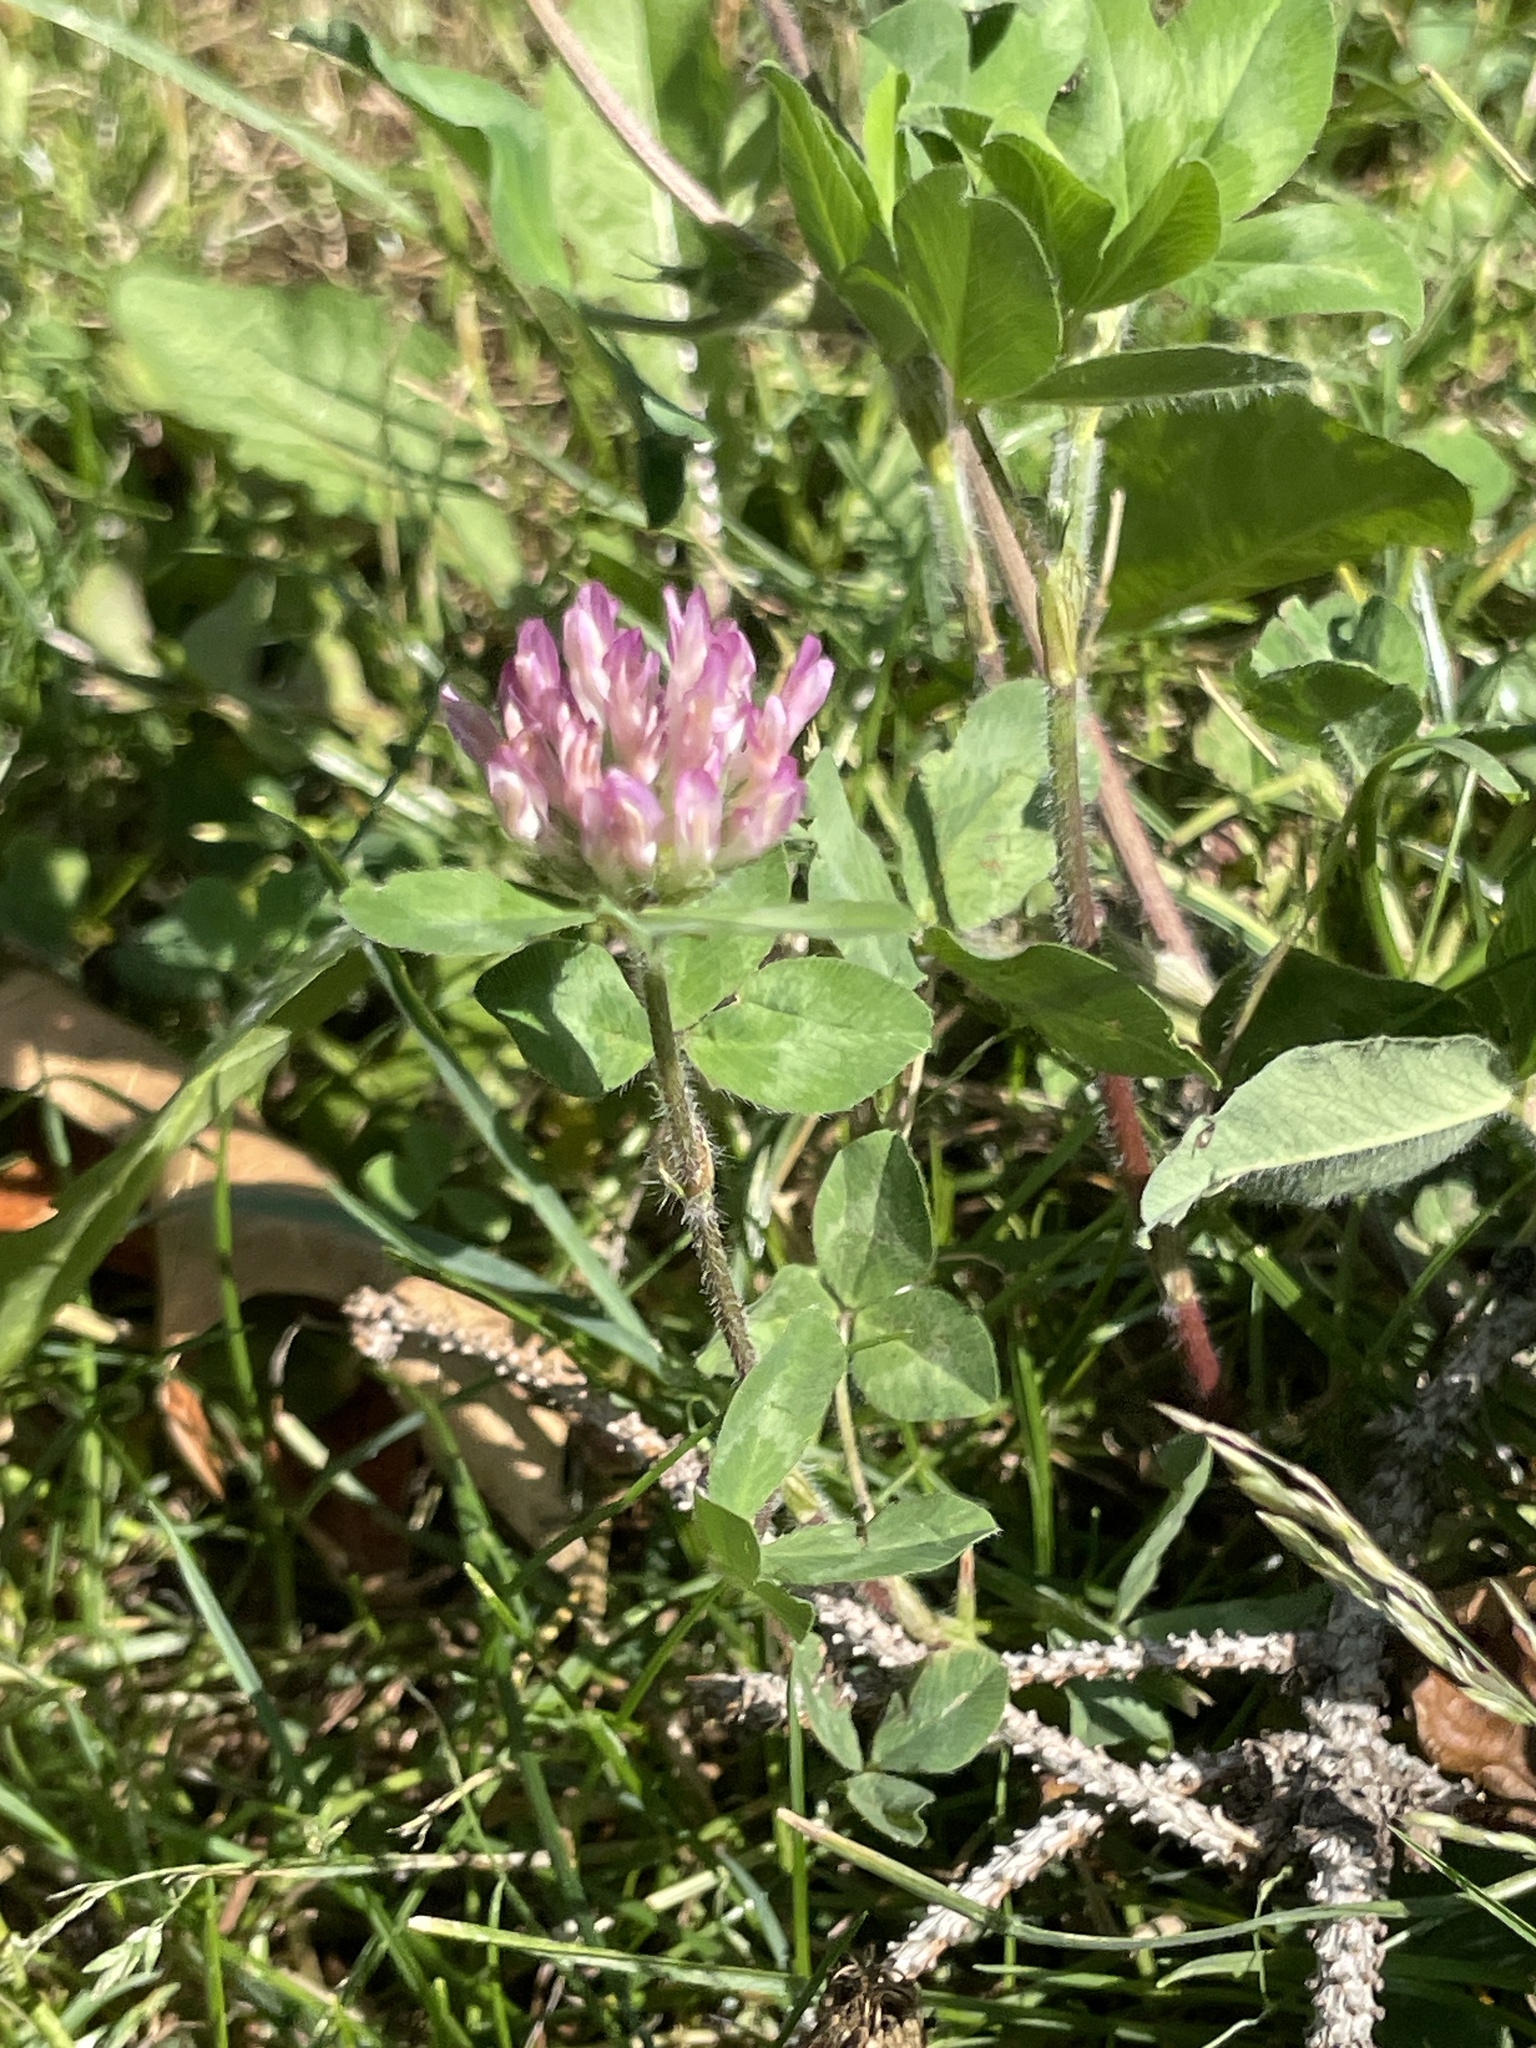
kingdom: Plantae
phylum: Tracheophyta
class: Magnoliopsida
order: Fabales
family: Fabaceae
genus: Trifolium
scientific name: Trifolium pratense
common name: Red clover
